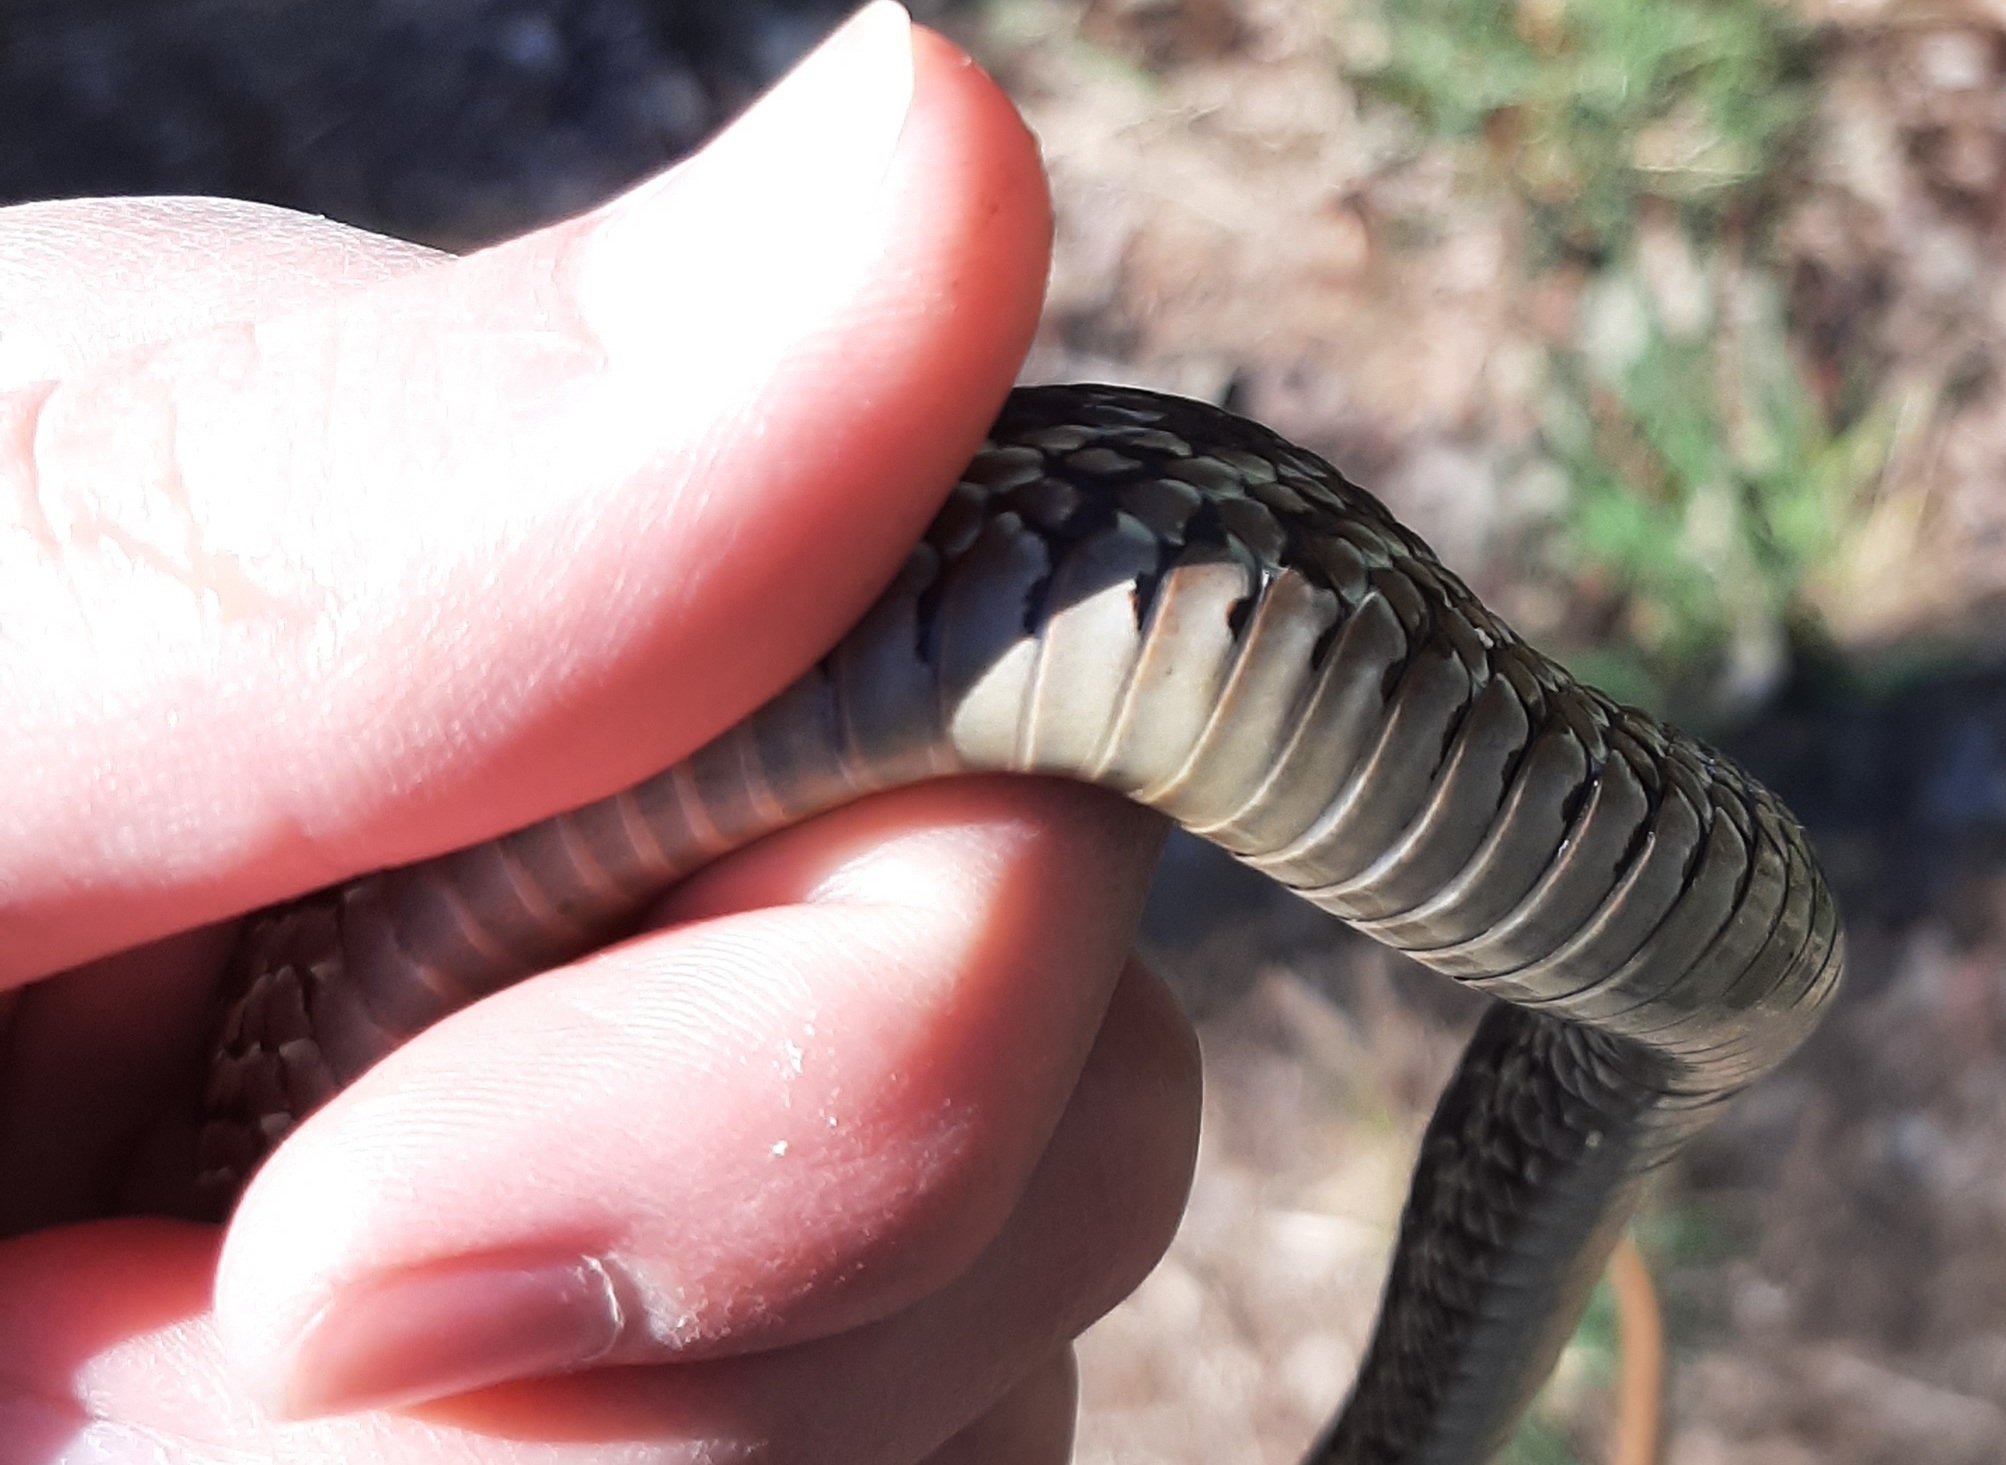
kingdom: Animalia
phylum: Chordata
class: Squamata
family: Colubridae
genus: Thamnophis
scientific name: Thamnophis sirtalis
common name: Common garter snake
